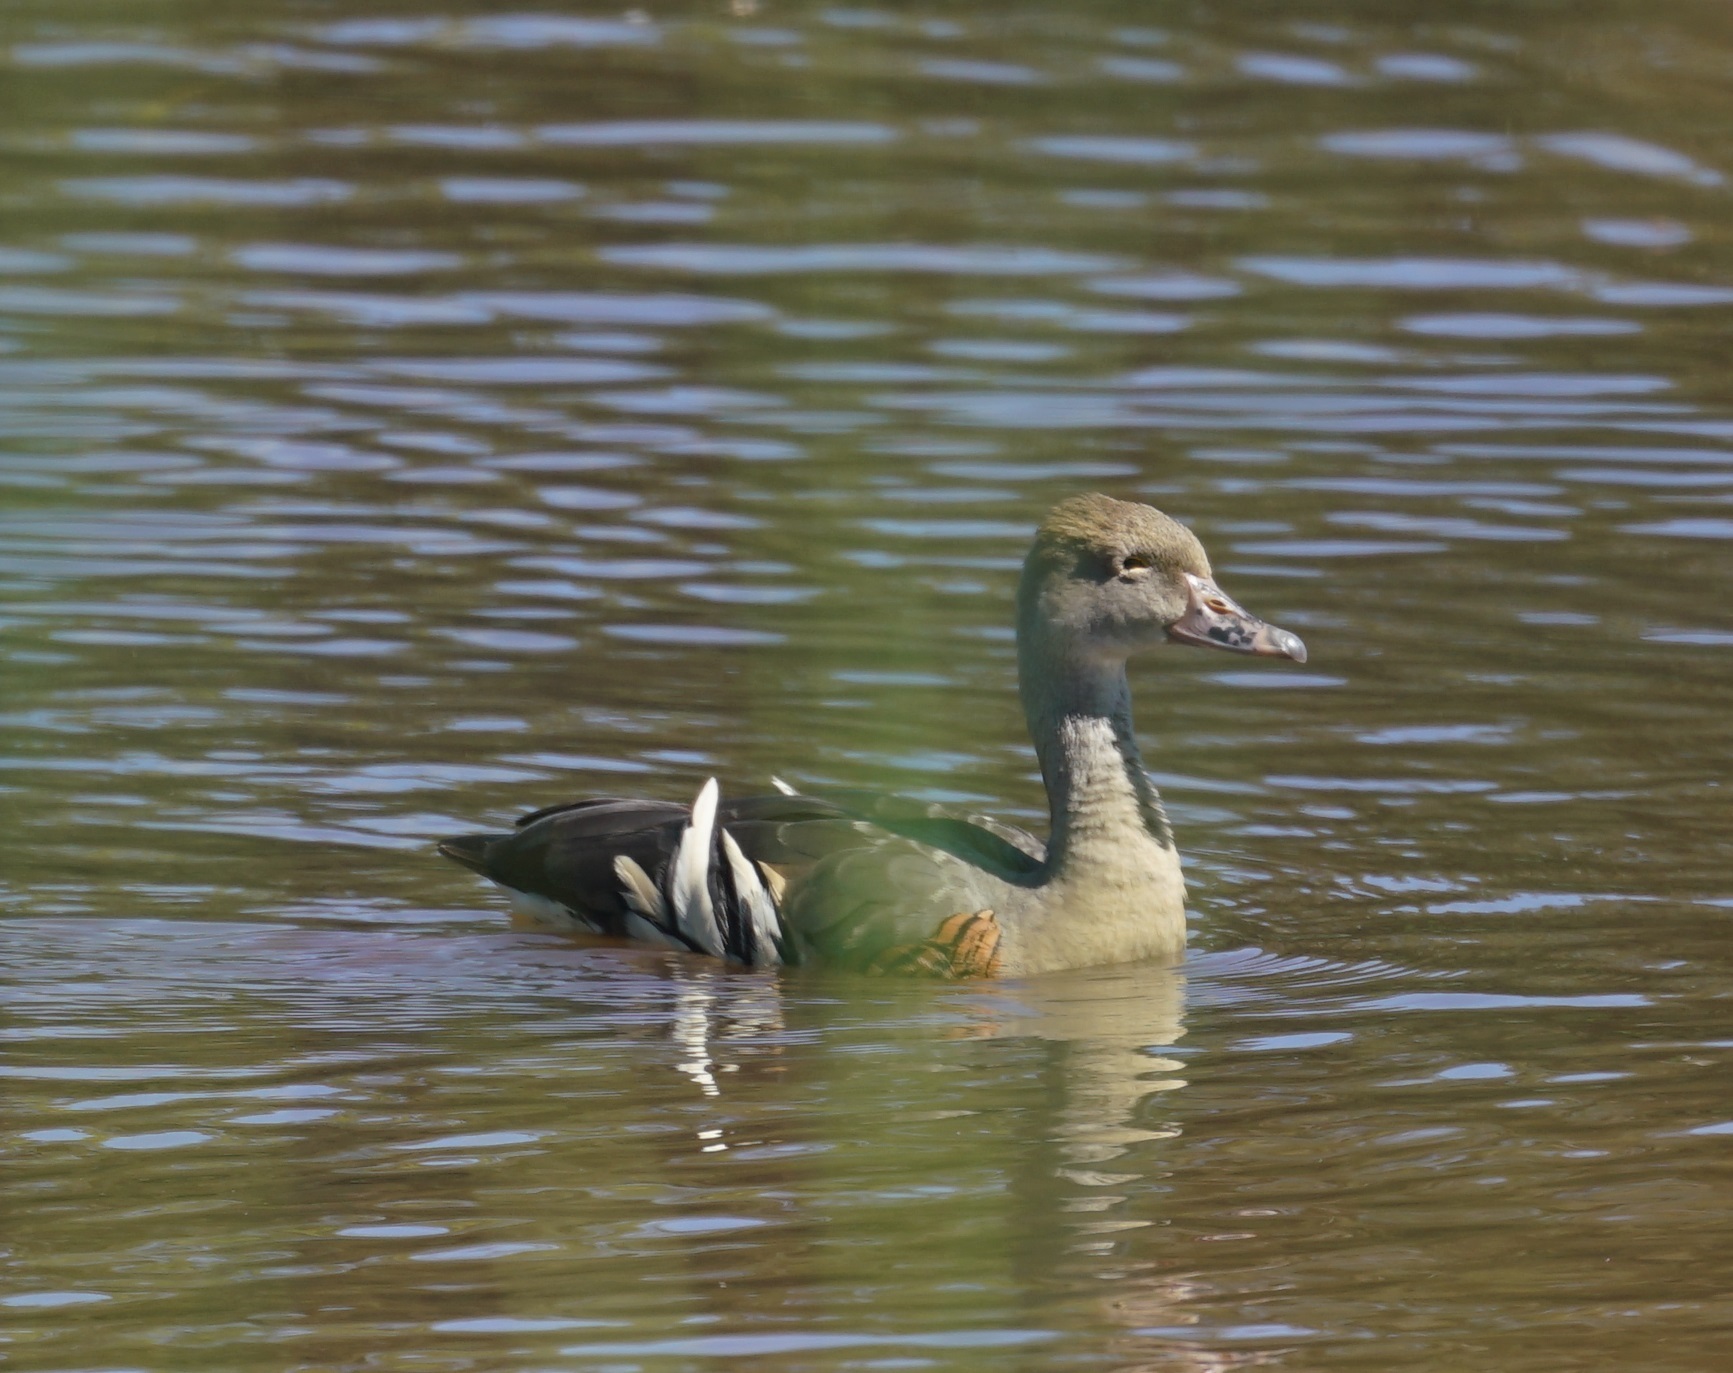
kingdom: Animalia
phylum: Chordata
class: Aves
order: Anseriformes
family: Anatidae
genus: Dendrocygna
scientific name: Dendrocygna eytoni
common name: Plumed whistling-duck
